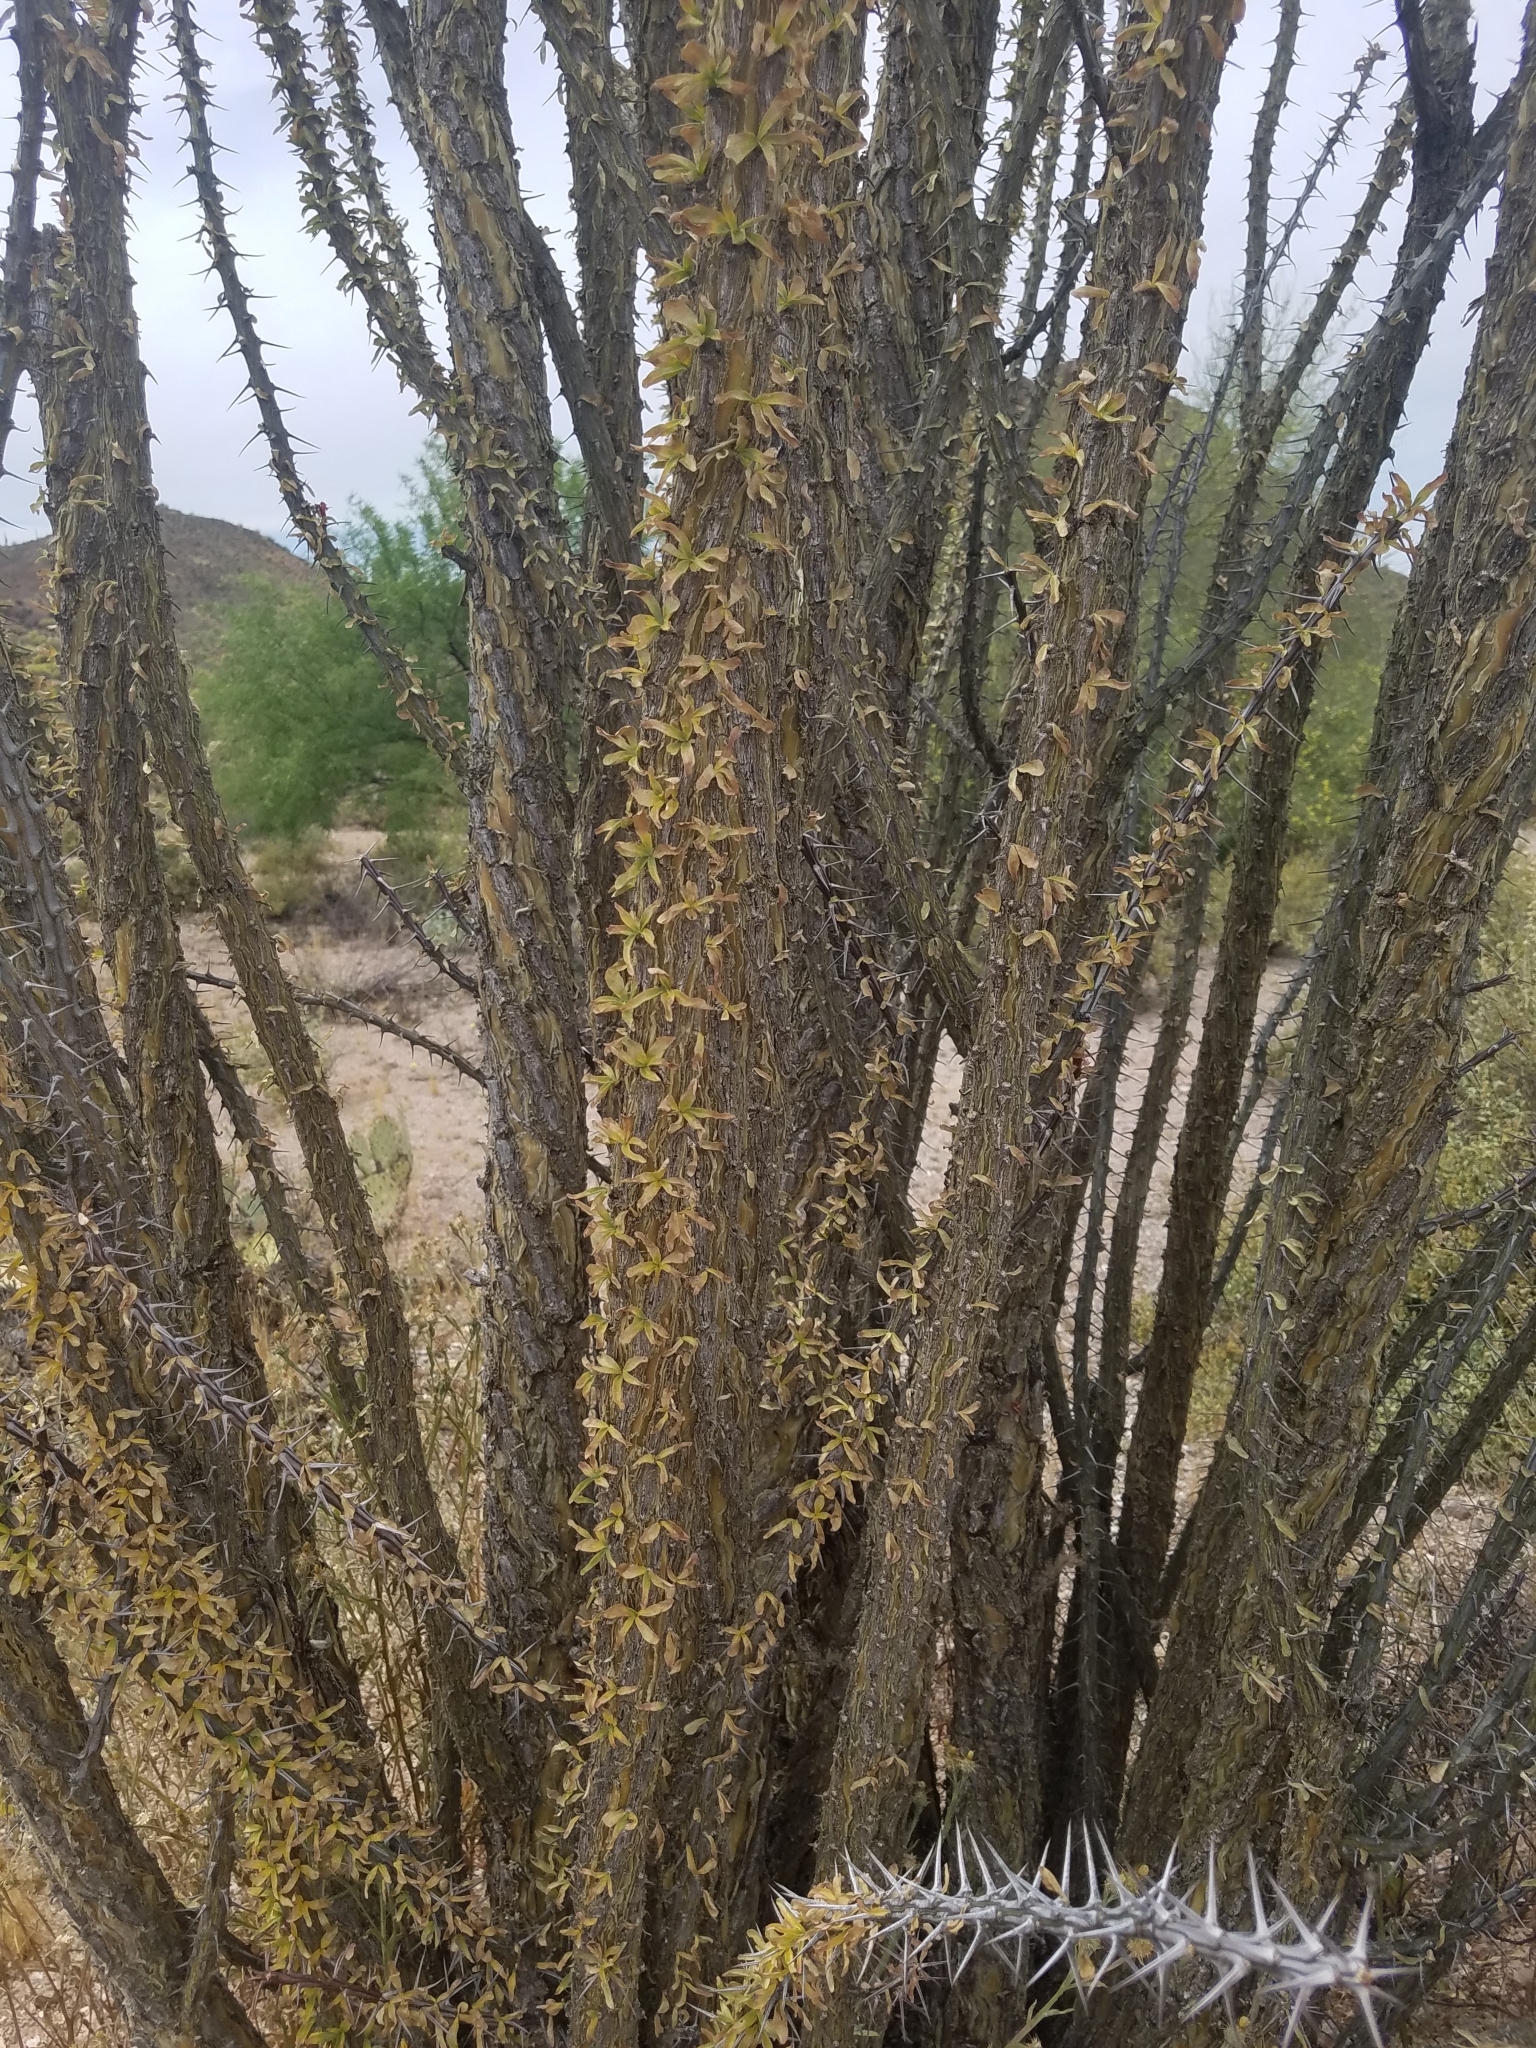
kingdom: Plantae
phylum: Tracheophyta
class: Magnoliopsida
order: Ericales
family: Fouquieriaceae
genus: Fouquieria
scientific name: Fouquieria splendens
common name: Vine-cactus
